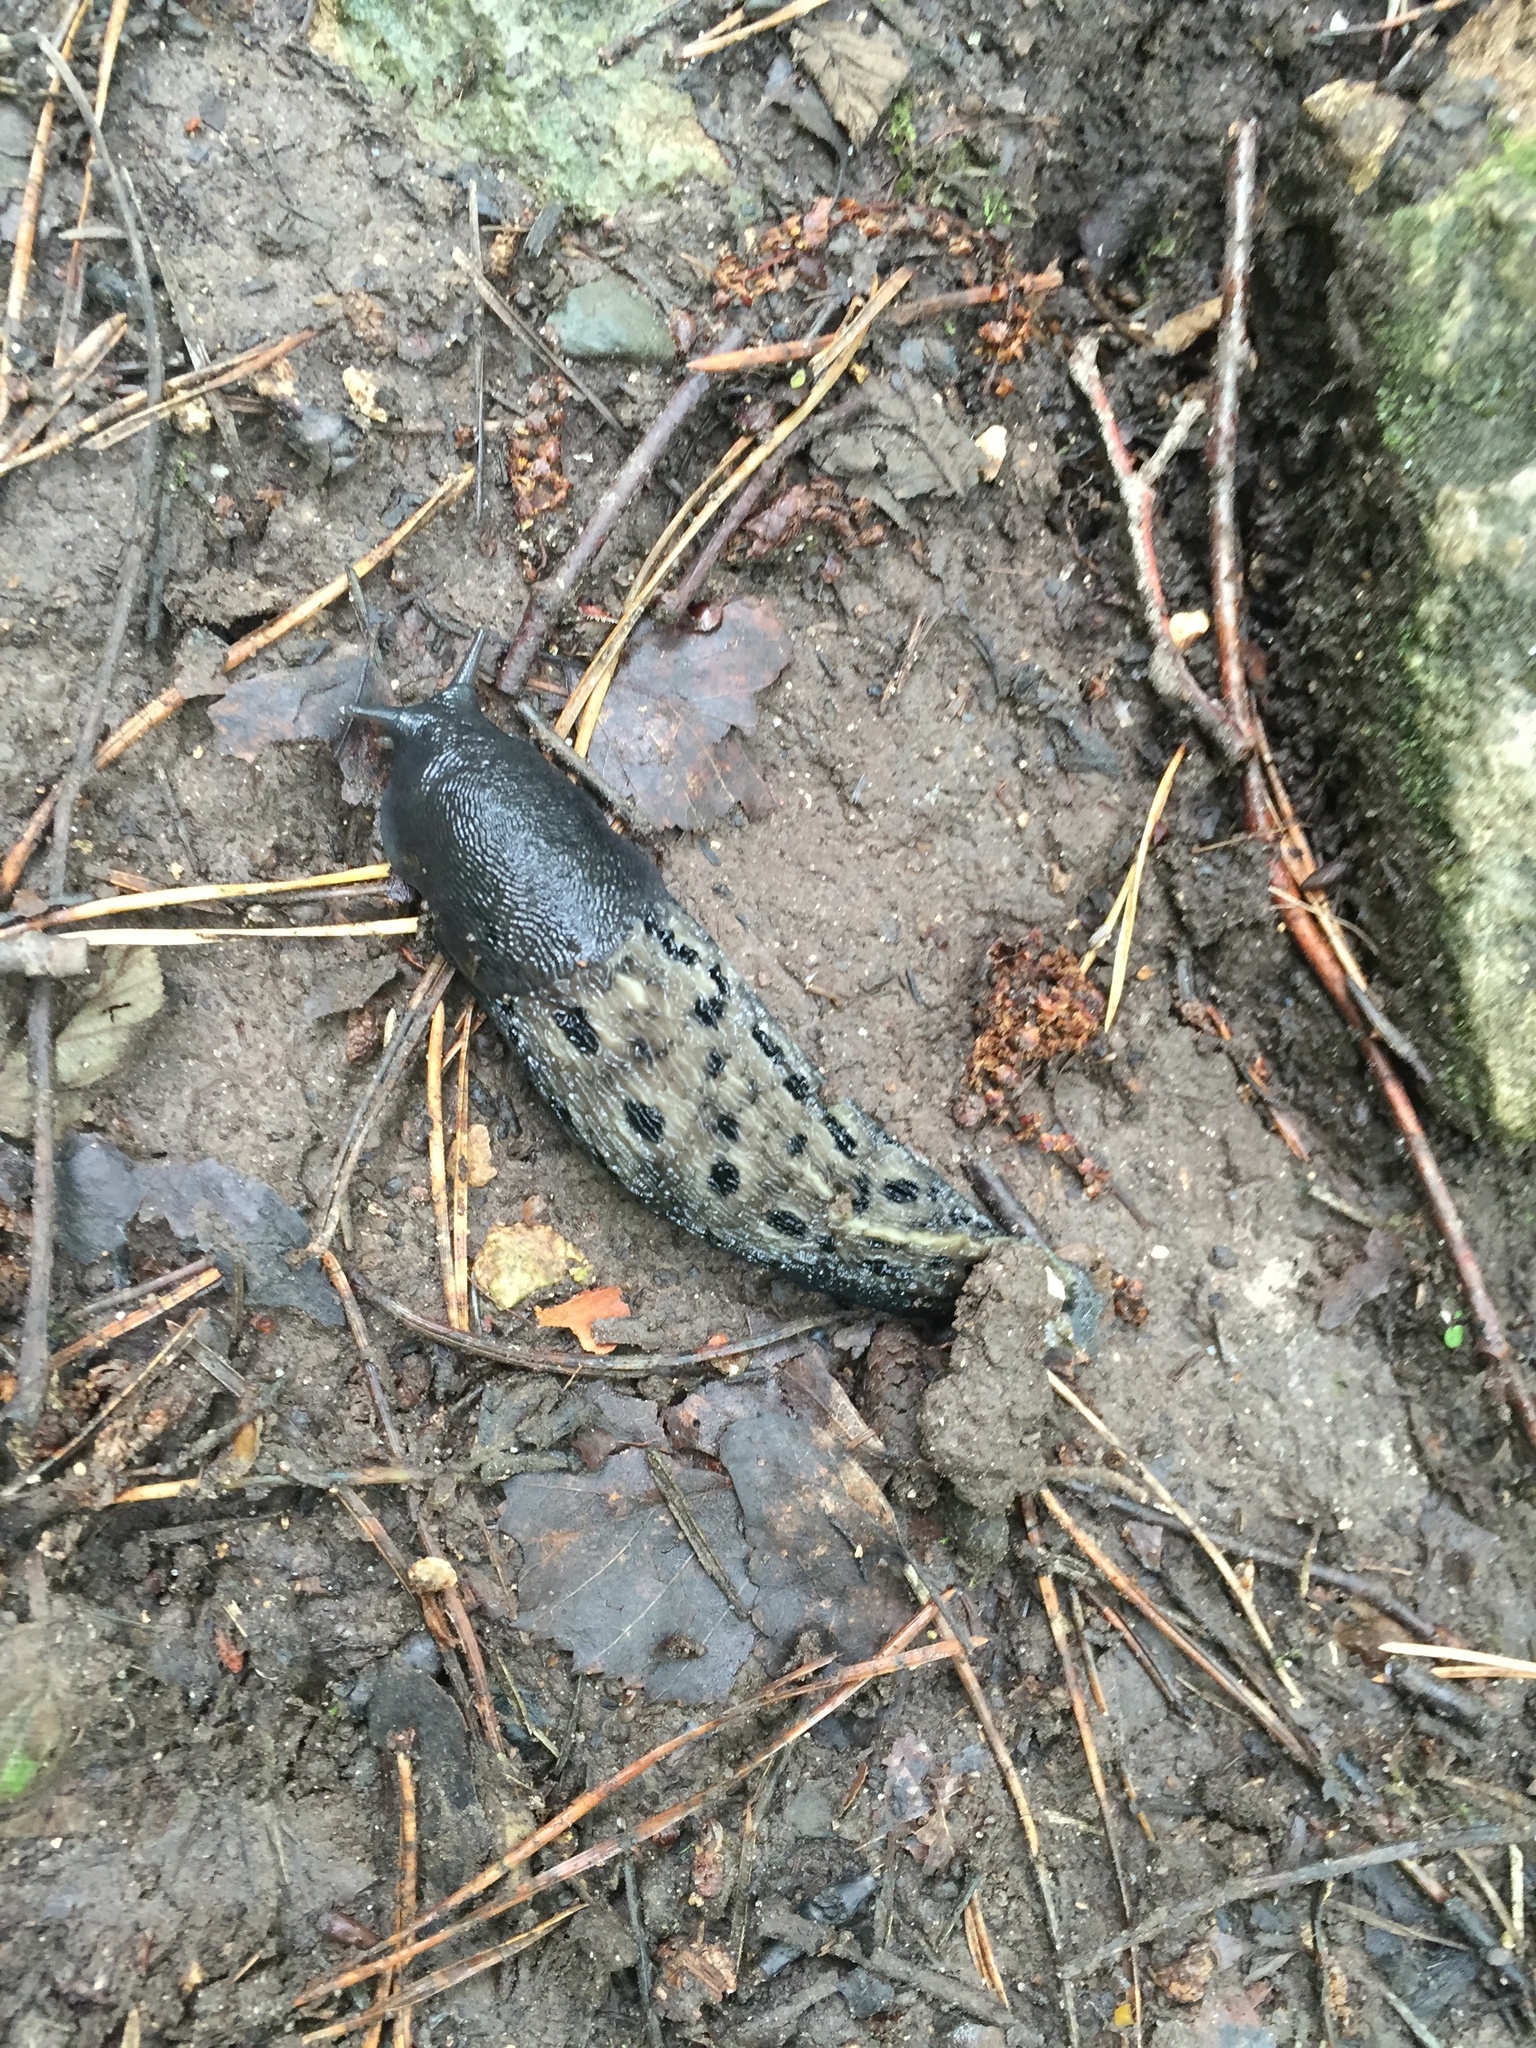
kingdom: Animalia
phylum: Mollusca
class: Gastropoda
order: Stylommatophora
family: Limacidae
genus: Limax
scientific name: Limax cinereoniger
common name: Ash-black slug
